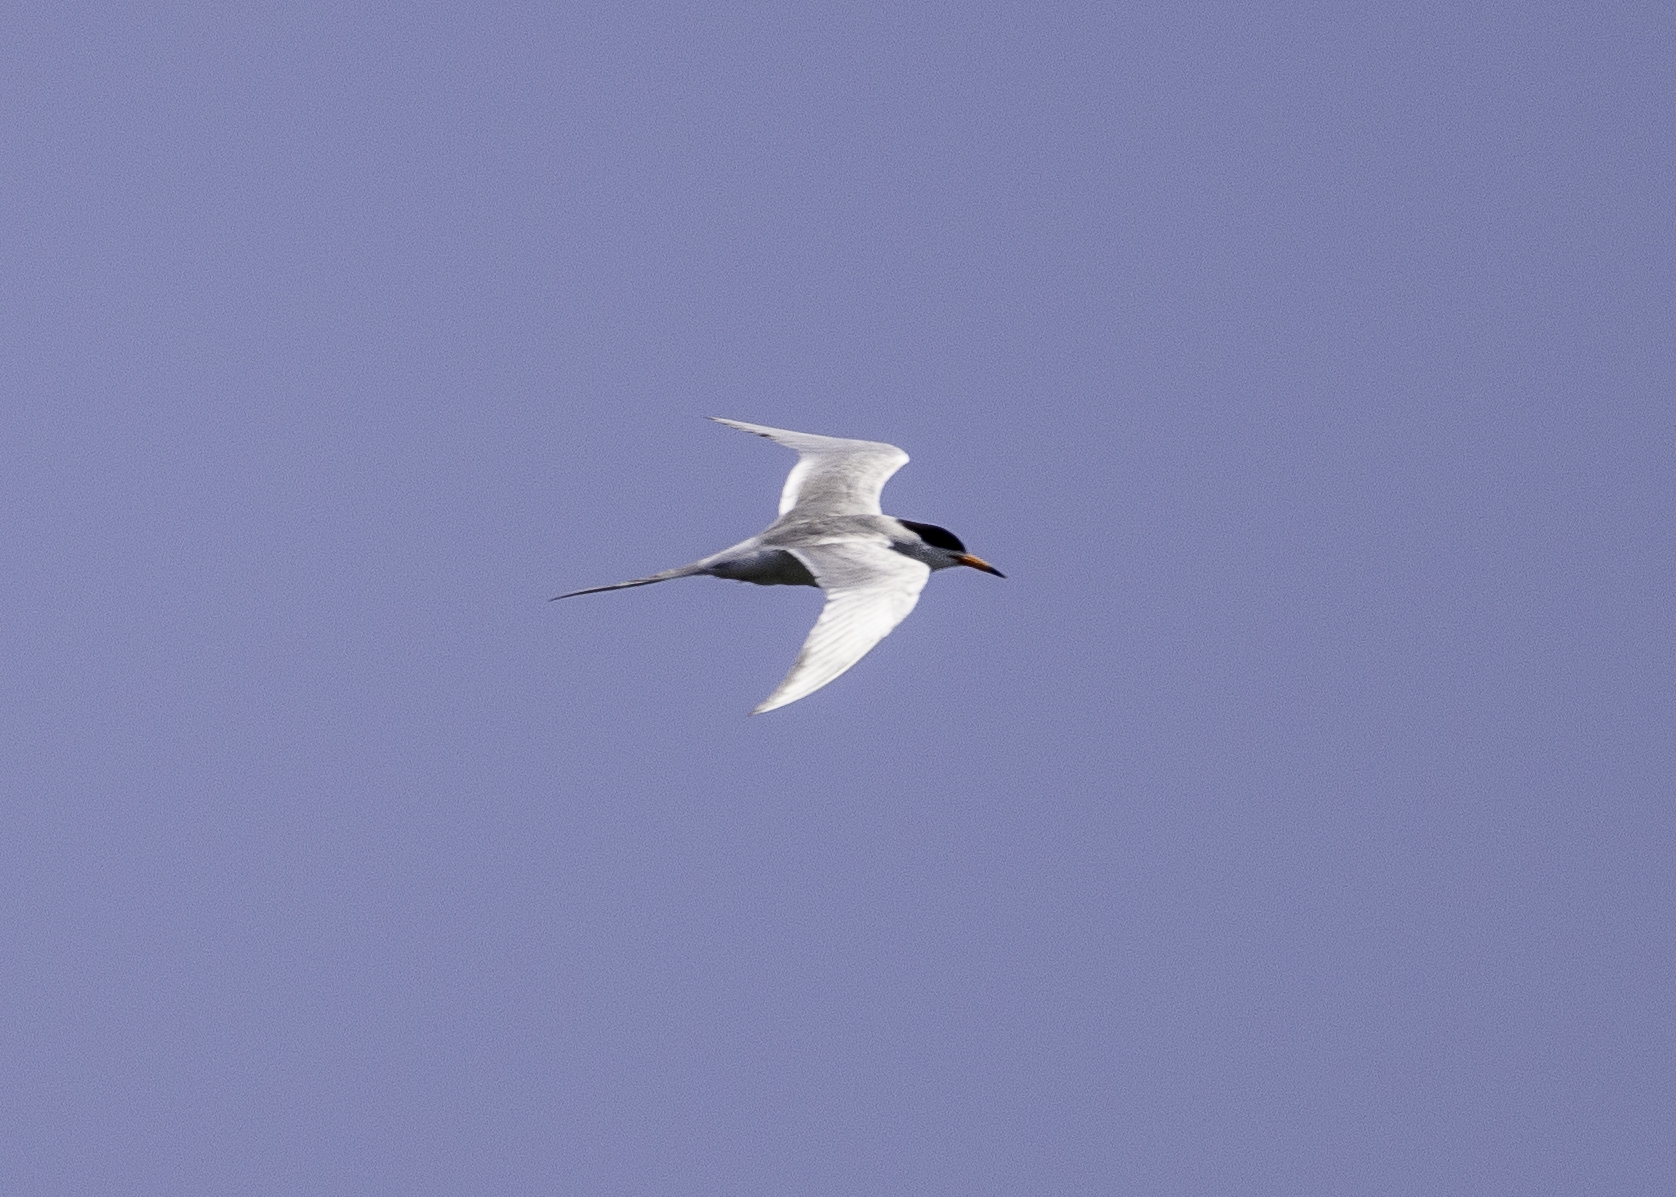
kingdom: Animalia
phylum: Chordata
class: Aves
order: Charadriiformes
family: Laridae
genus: Sterna
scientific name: Sterna forsteri
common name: Forster's tern
